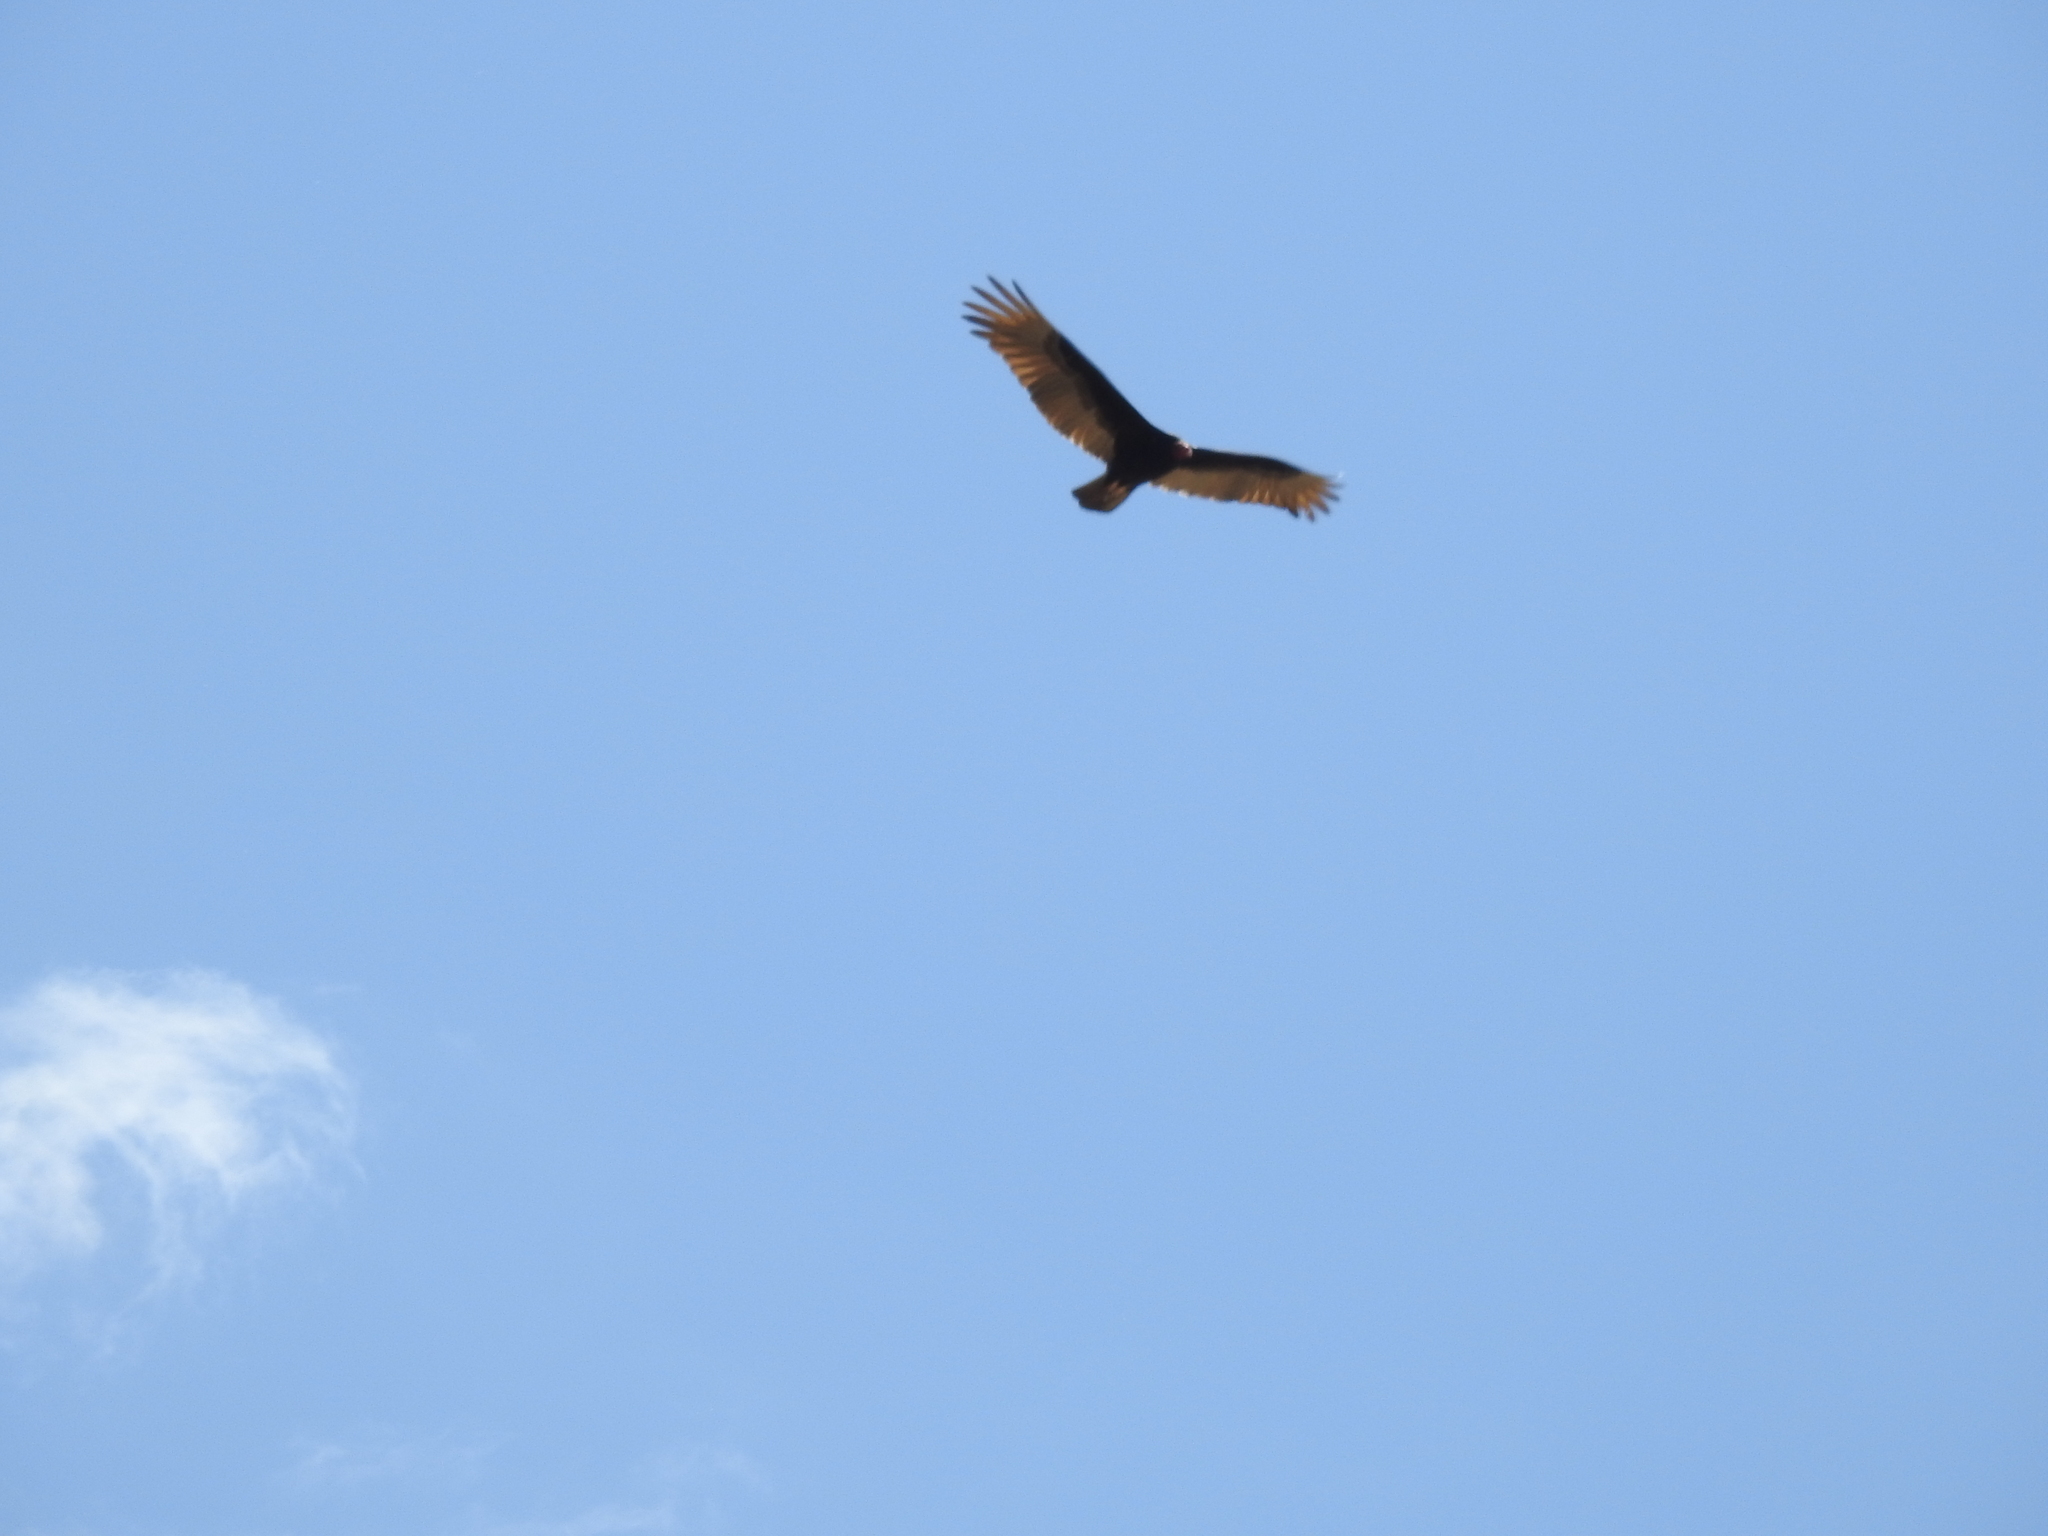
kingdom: Animalia
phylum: Chordata
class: Aves
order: Accipitriformes
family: Cathartidae
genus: Cathartes
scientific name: Cathartes aura
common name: Turkey vulture
